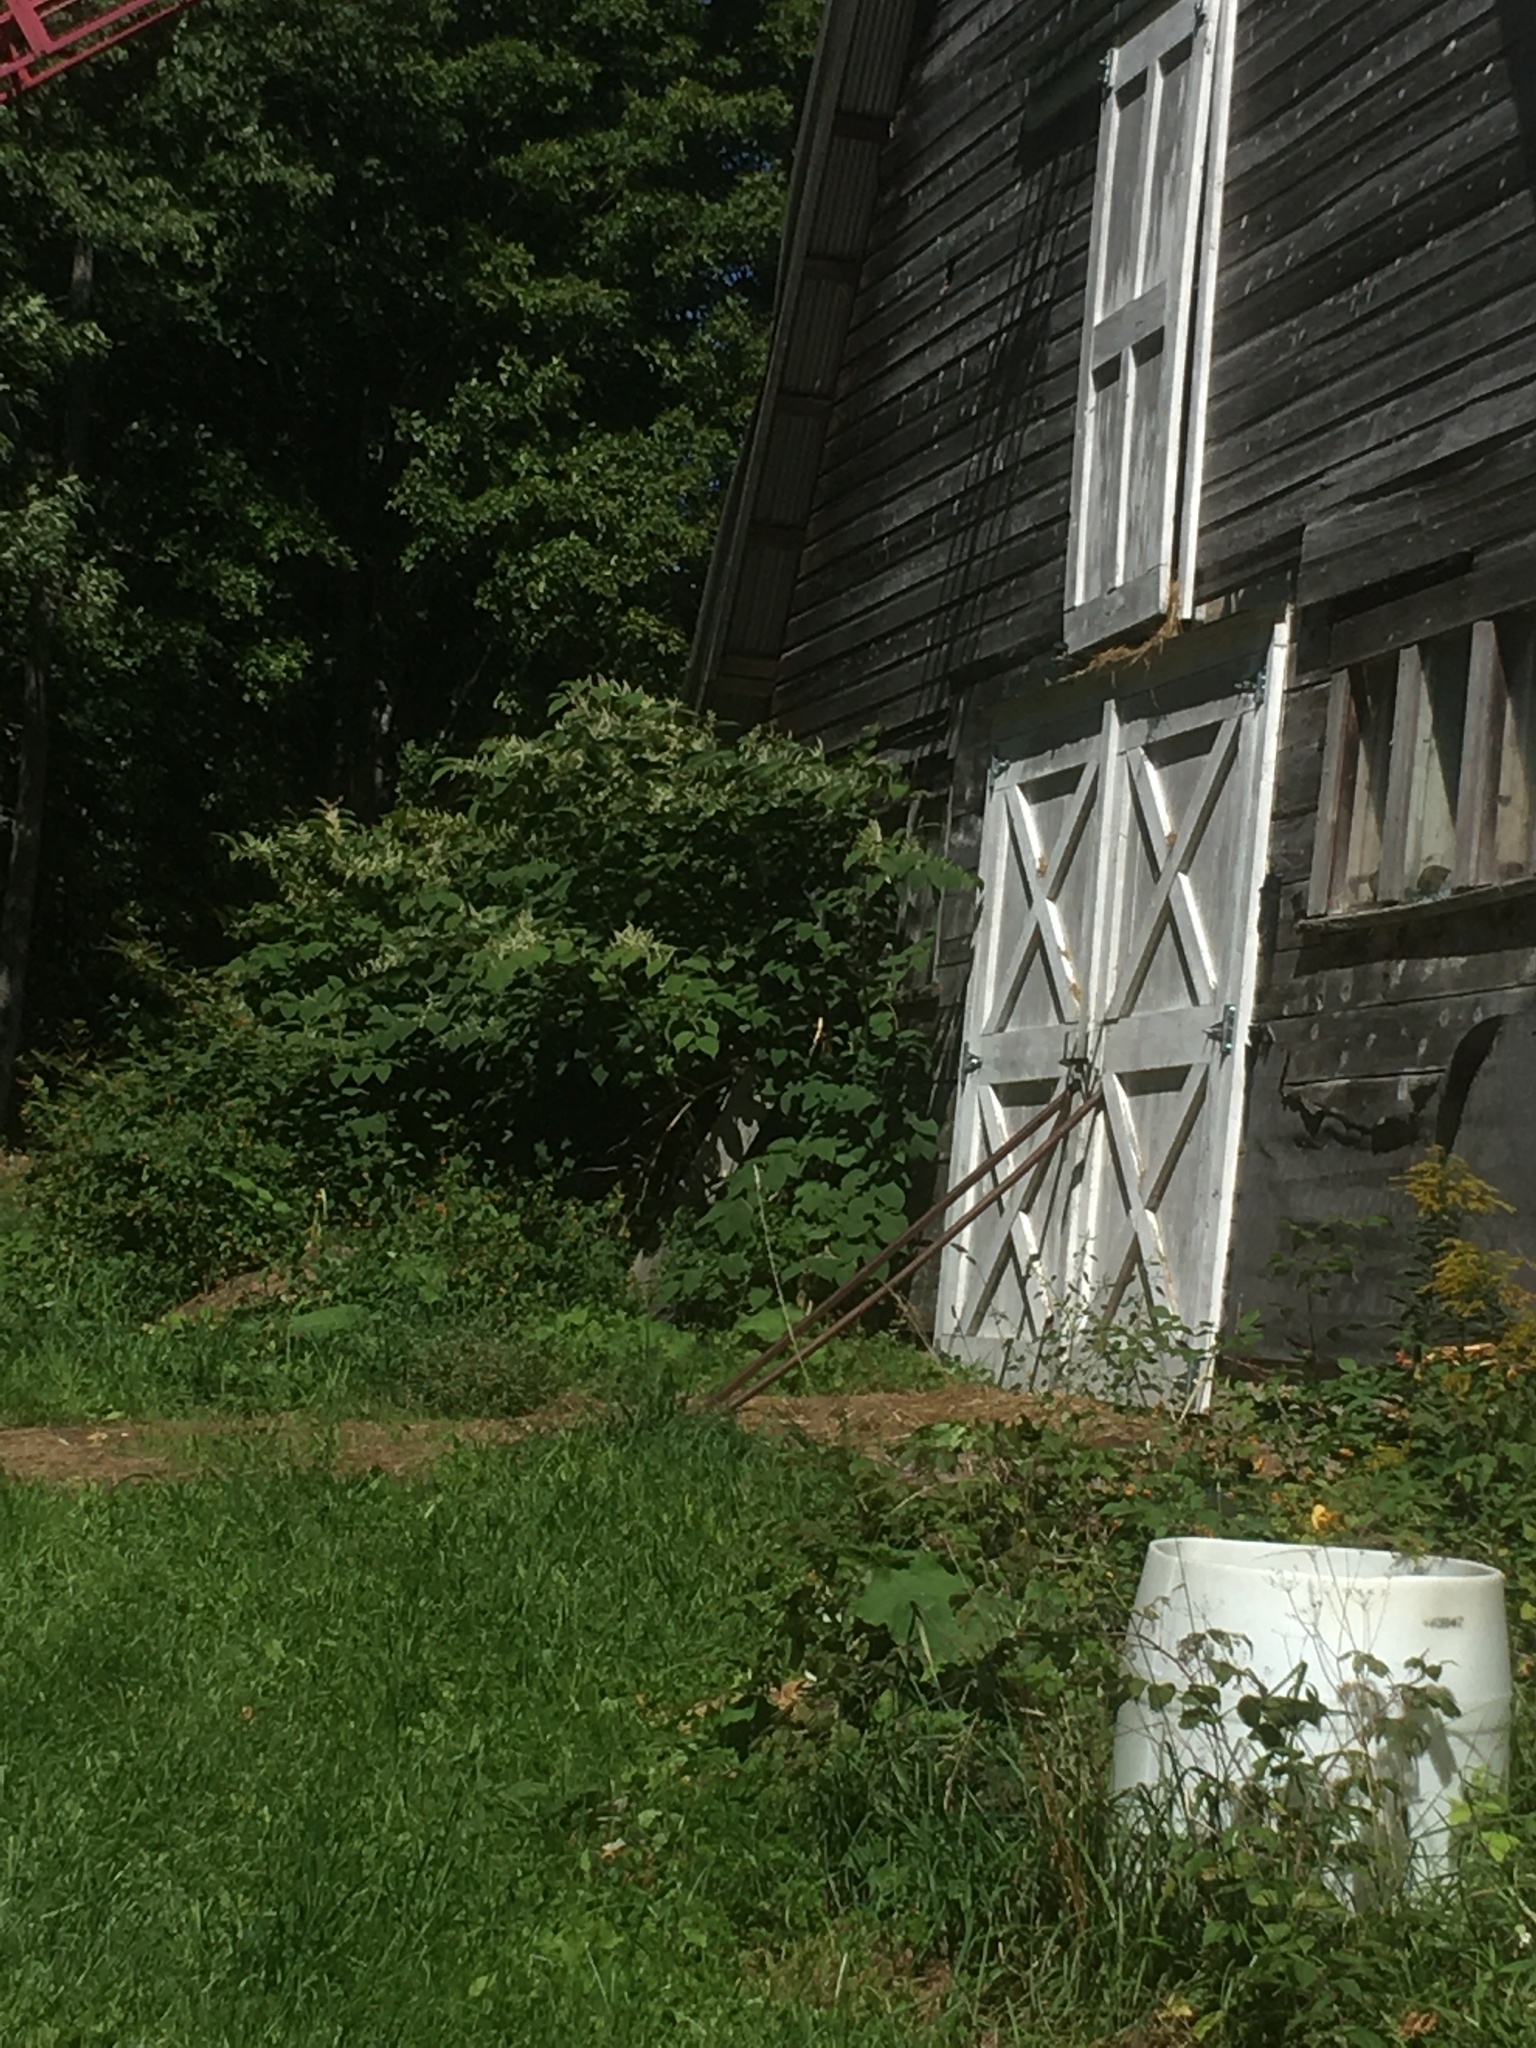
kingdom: Plantae
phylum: Tracheophyta
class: Magnoliopsida
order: Caryophyllales
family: Polygonaceae
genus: Reynoutria
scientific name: Reynoutria japonica
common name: Japanese knotweed
